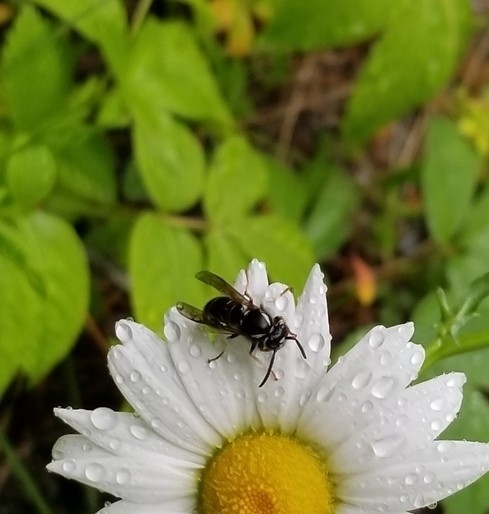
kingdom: Animalia
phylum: Arthropoda
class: Insecta
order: Hymenoptera
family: Vespidae
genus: Vespula
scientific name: Vespula consobrina
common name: Blackjacket
